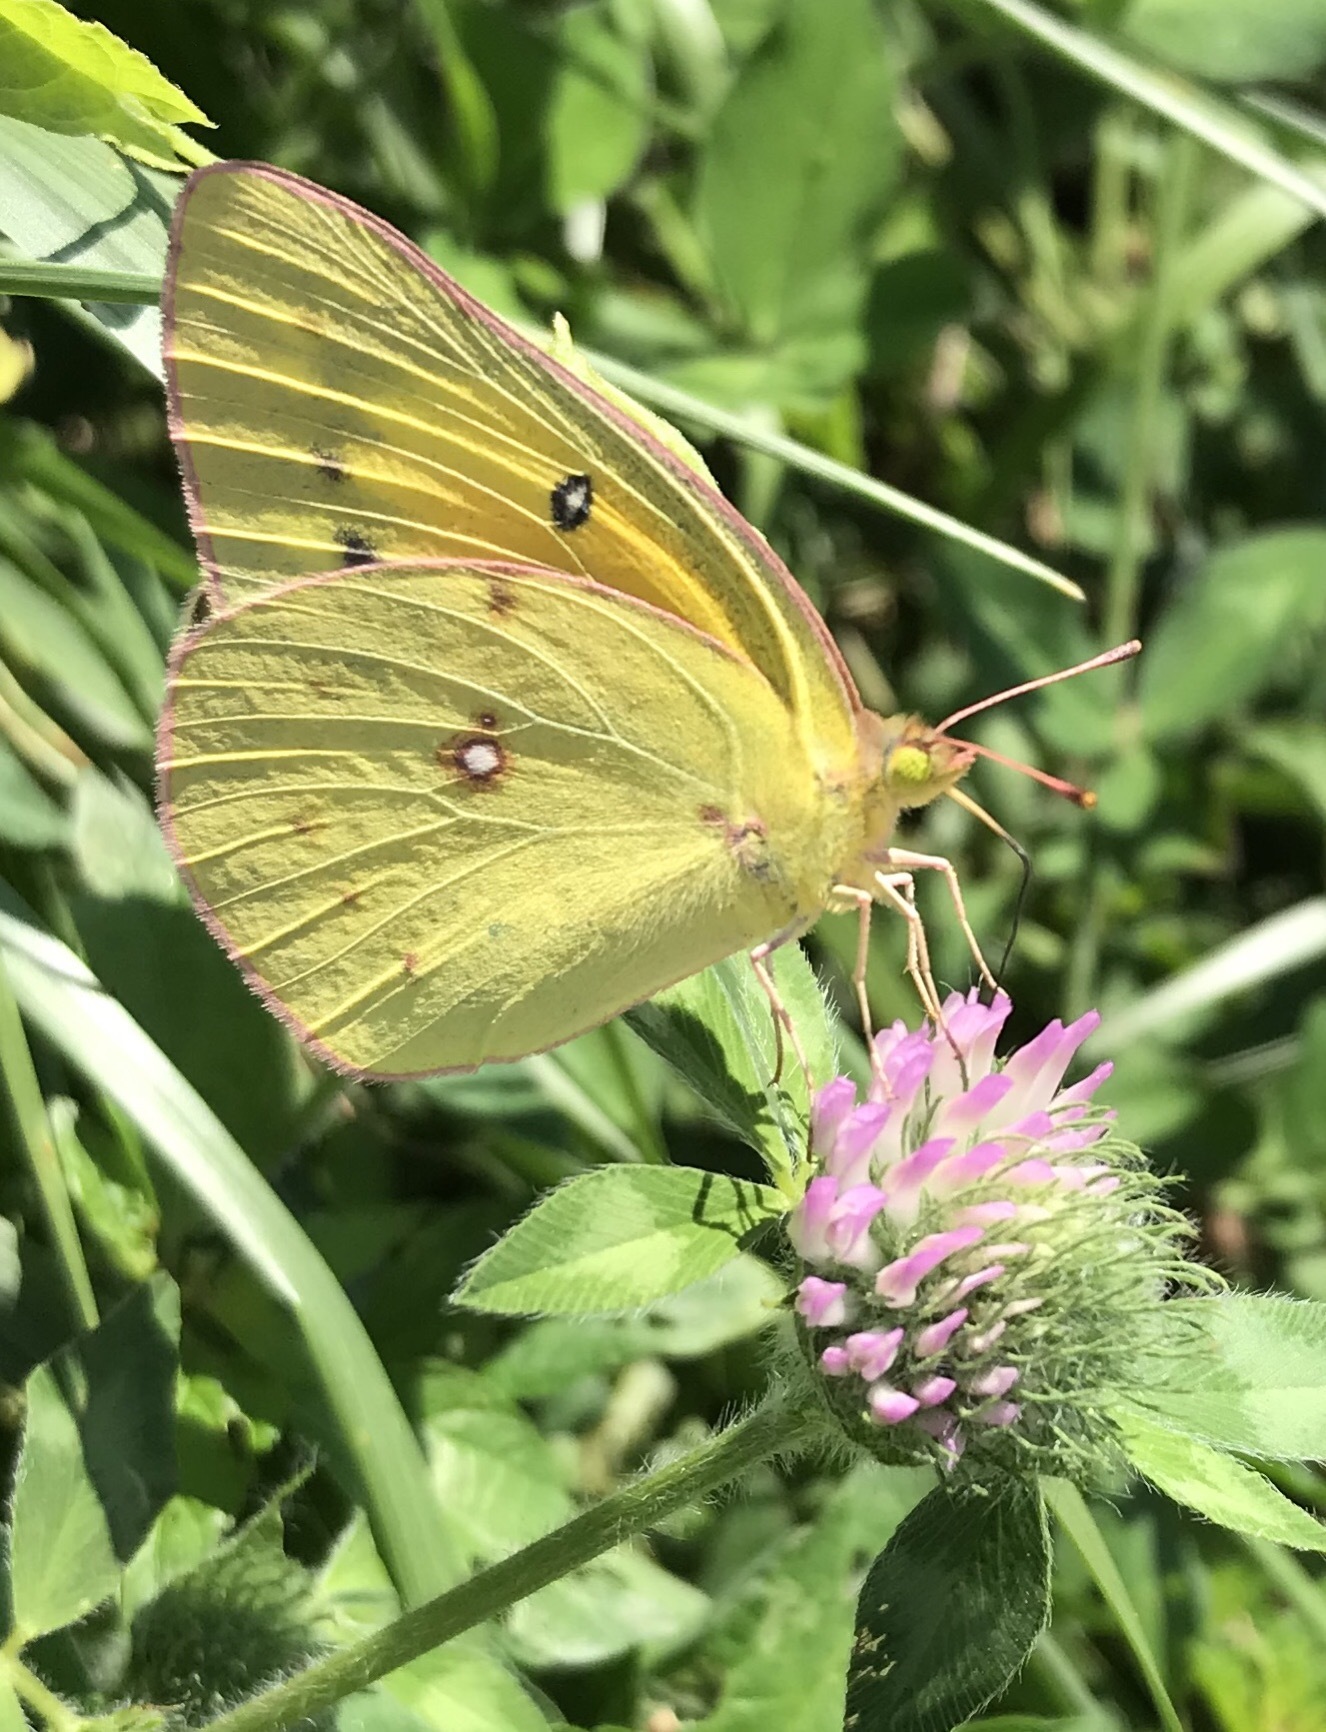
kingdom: Animalia
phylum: Arthropoda
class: Insecta
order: Lepidoptera
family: Pieridae
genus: Colias
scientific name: Colias eurytheme
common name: Alfalfa butterfly
